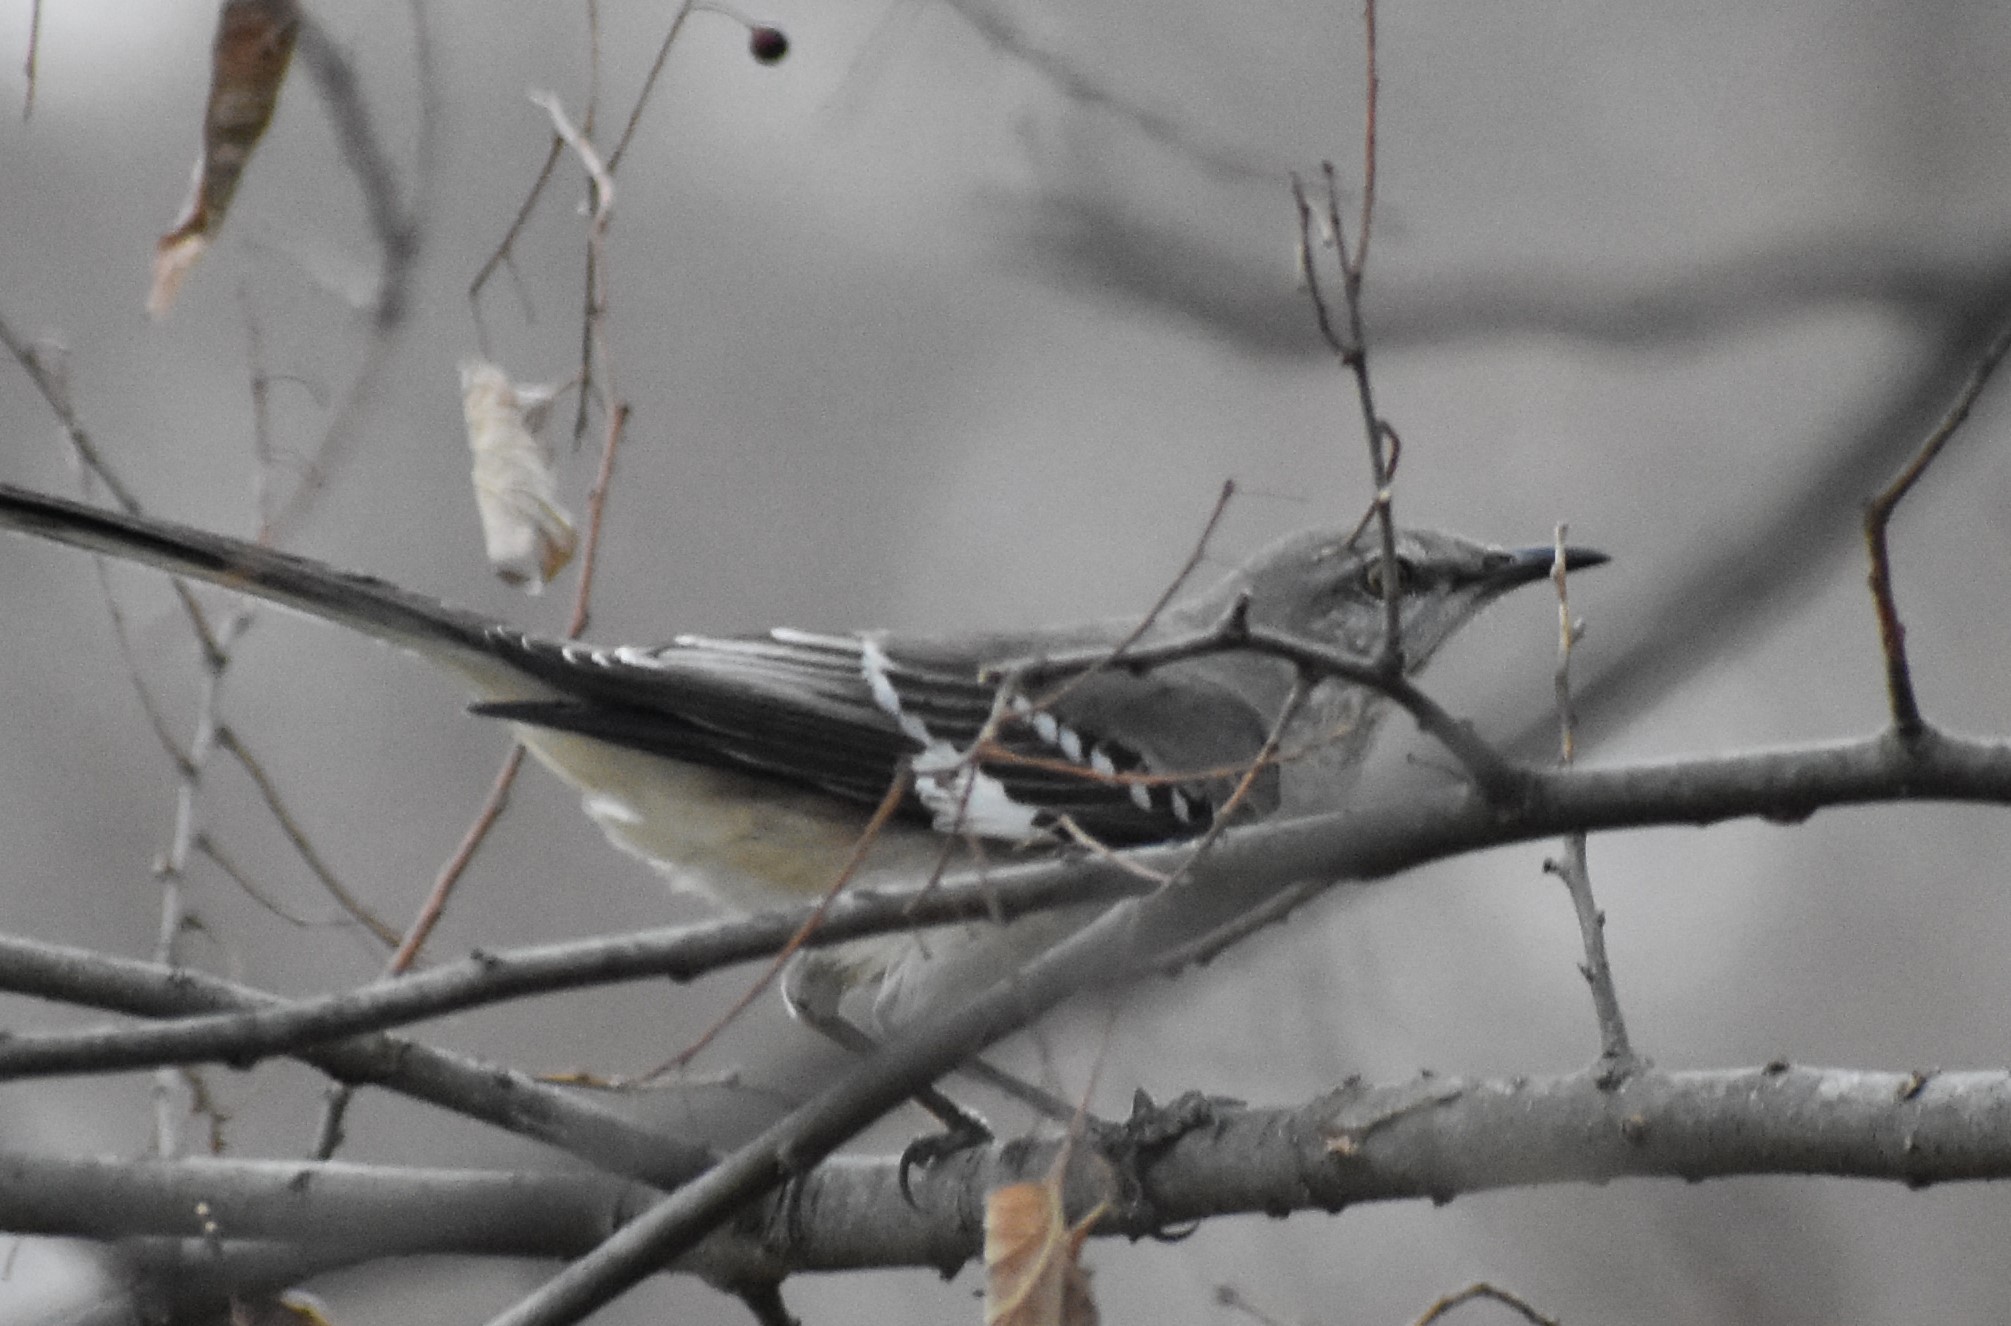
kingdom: Animalia
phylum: Chordata
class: Aves
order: Passeriformes
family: Mimidae
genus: Mimus
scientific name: Mimus polyglottos
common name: Northern mockingbird
